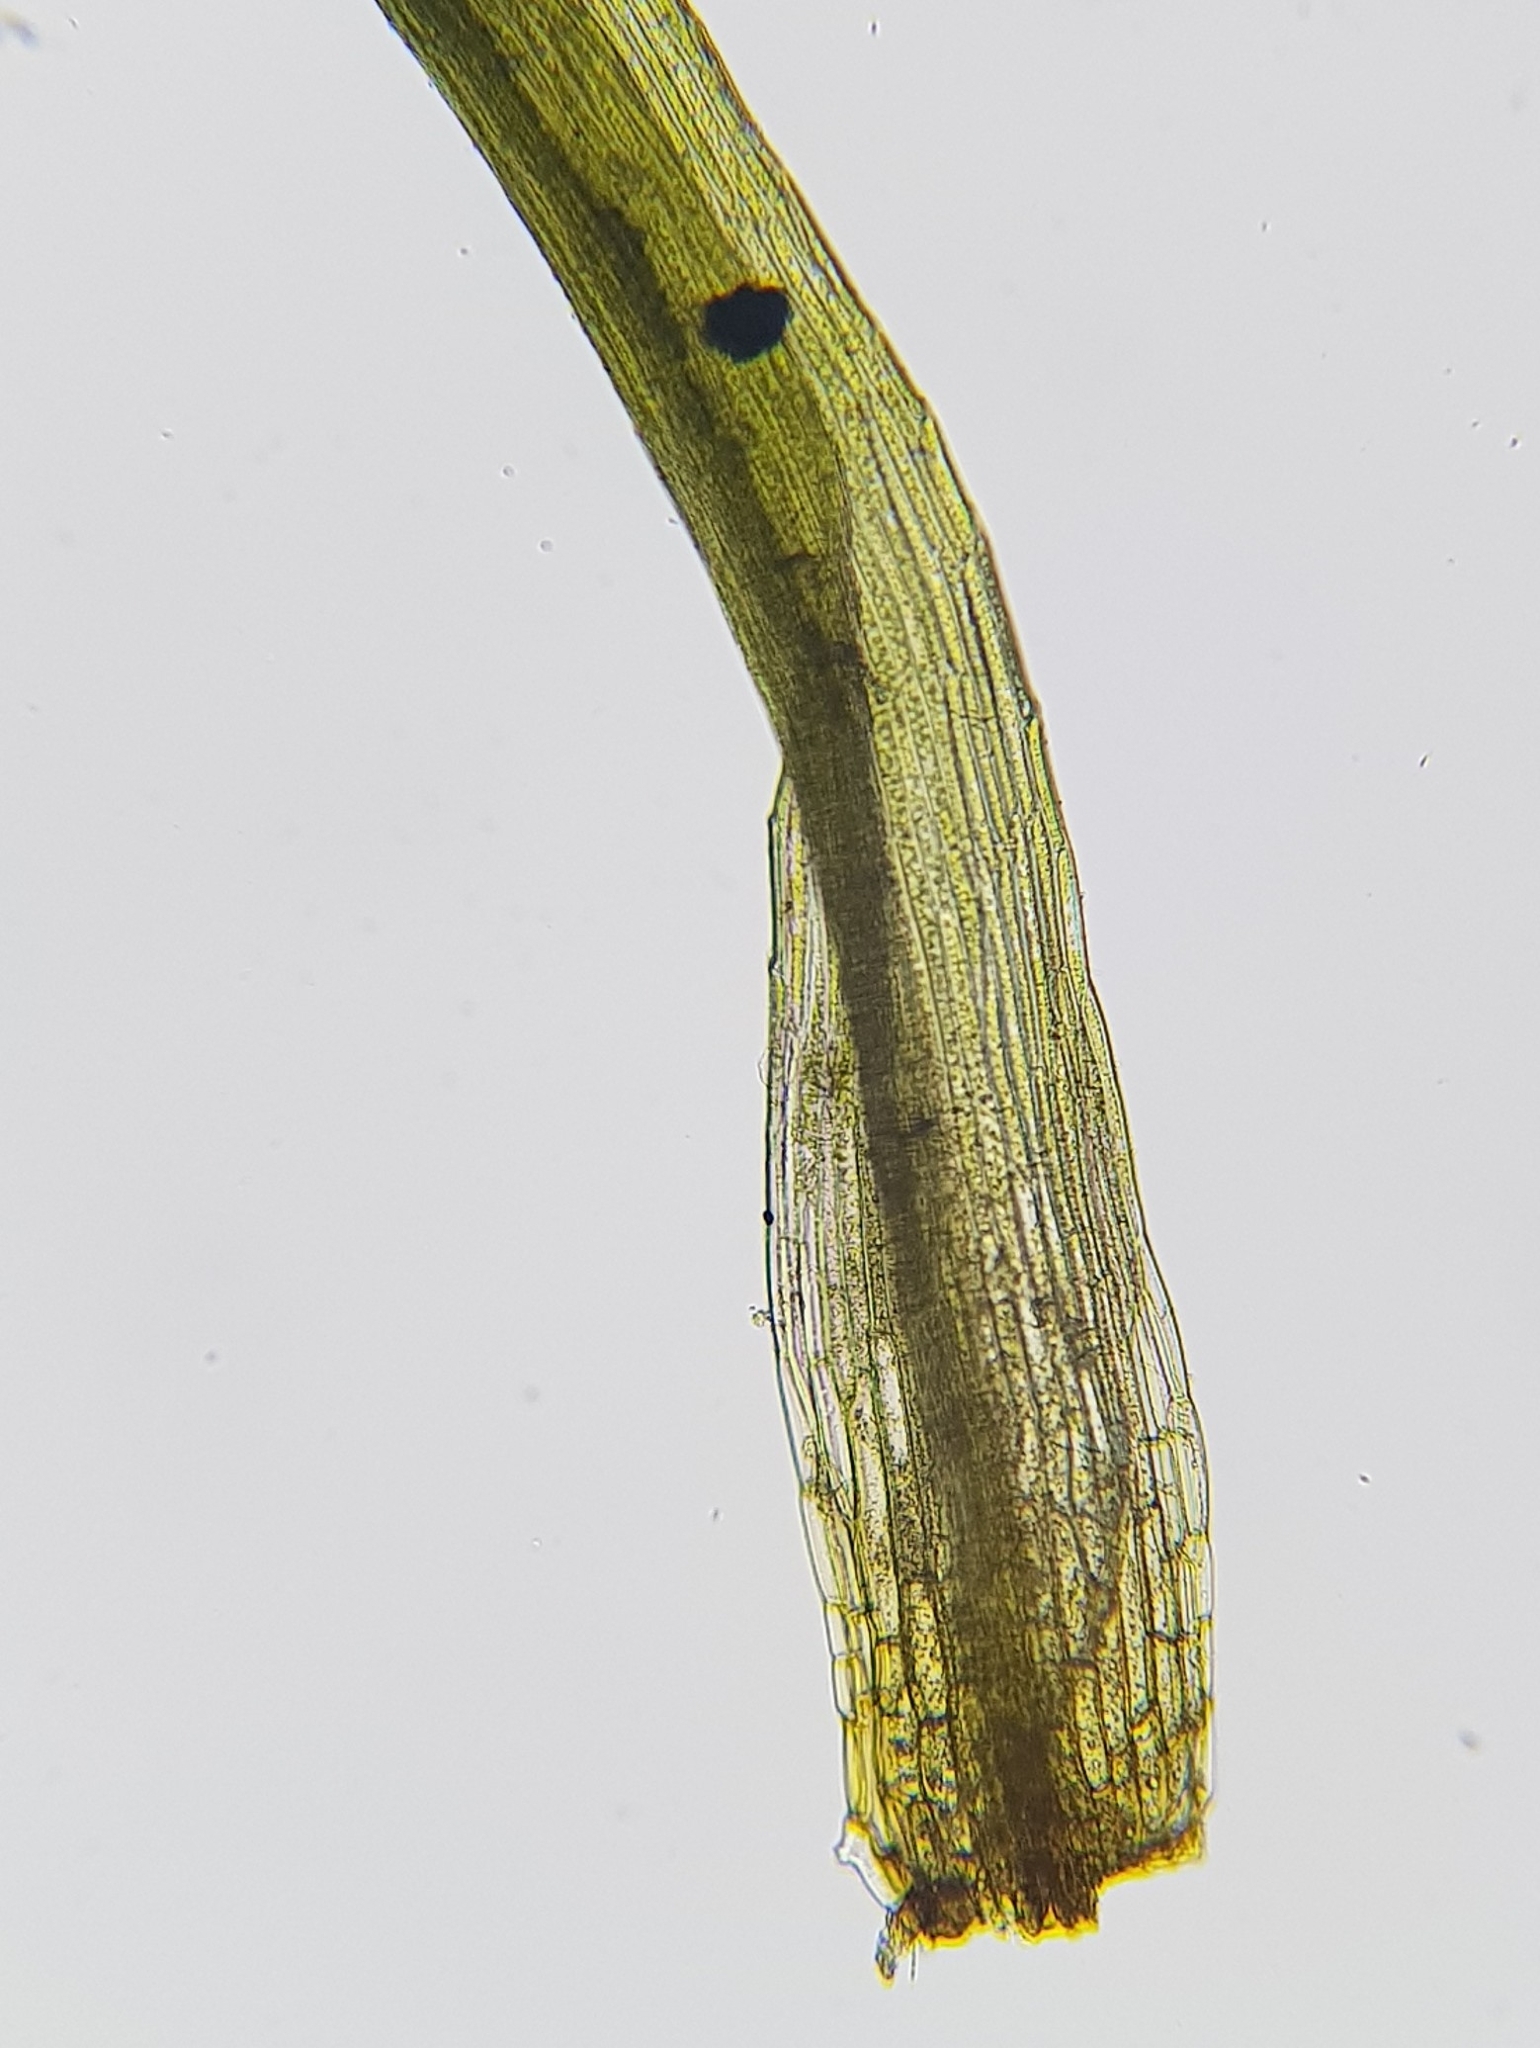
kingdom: Plantae
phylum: Bryophyta
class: Bryopsida
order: Orthodontiales
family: Orthodontiaceae
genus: Orthodontium
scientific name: Orthodontium lineare
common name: Cape thread-moss
